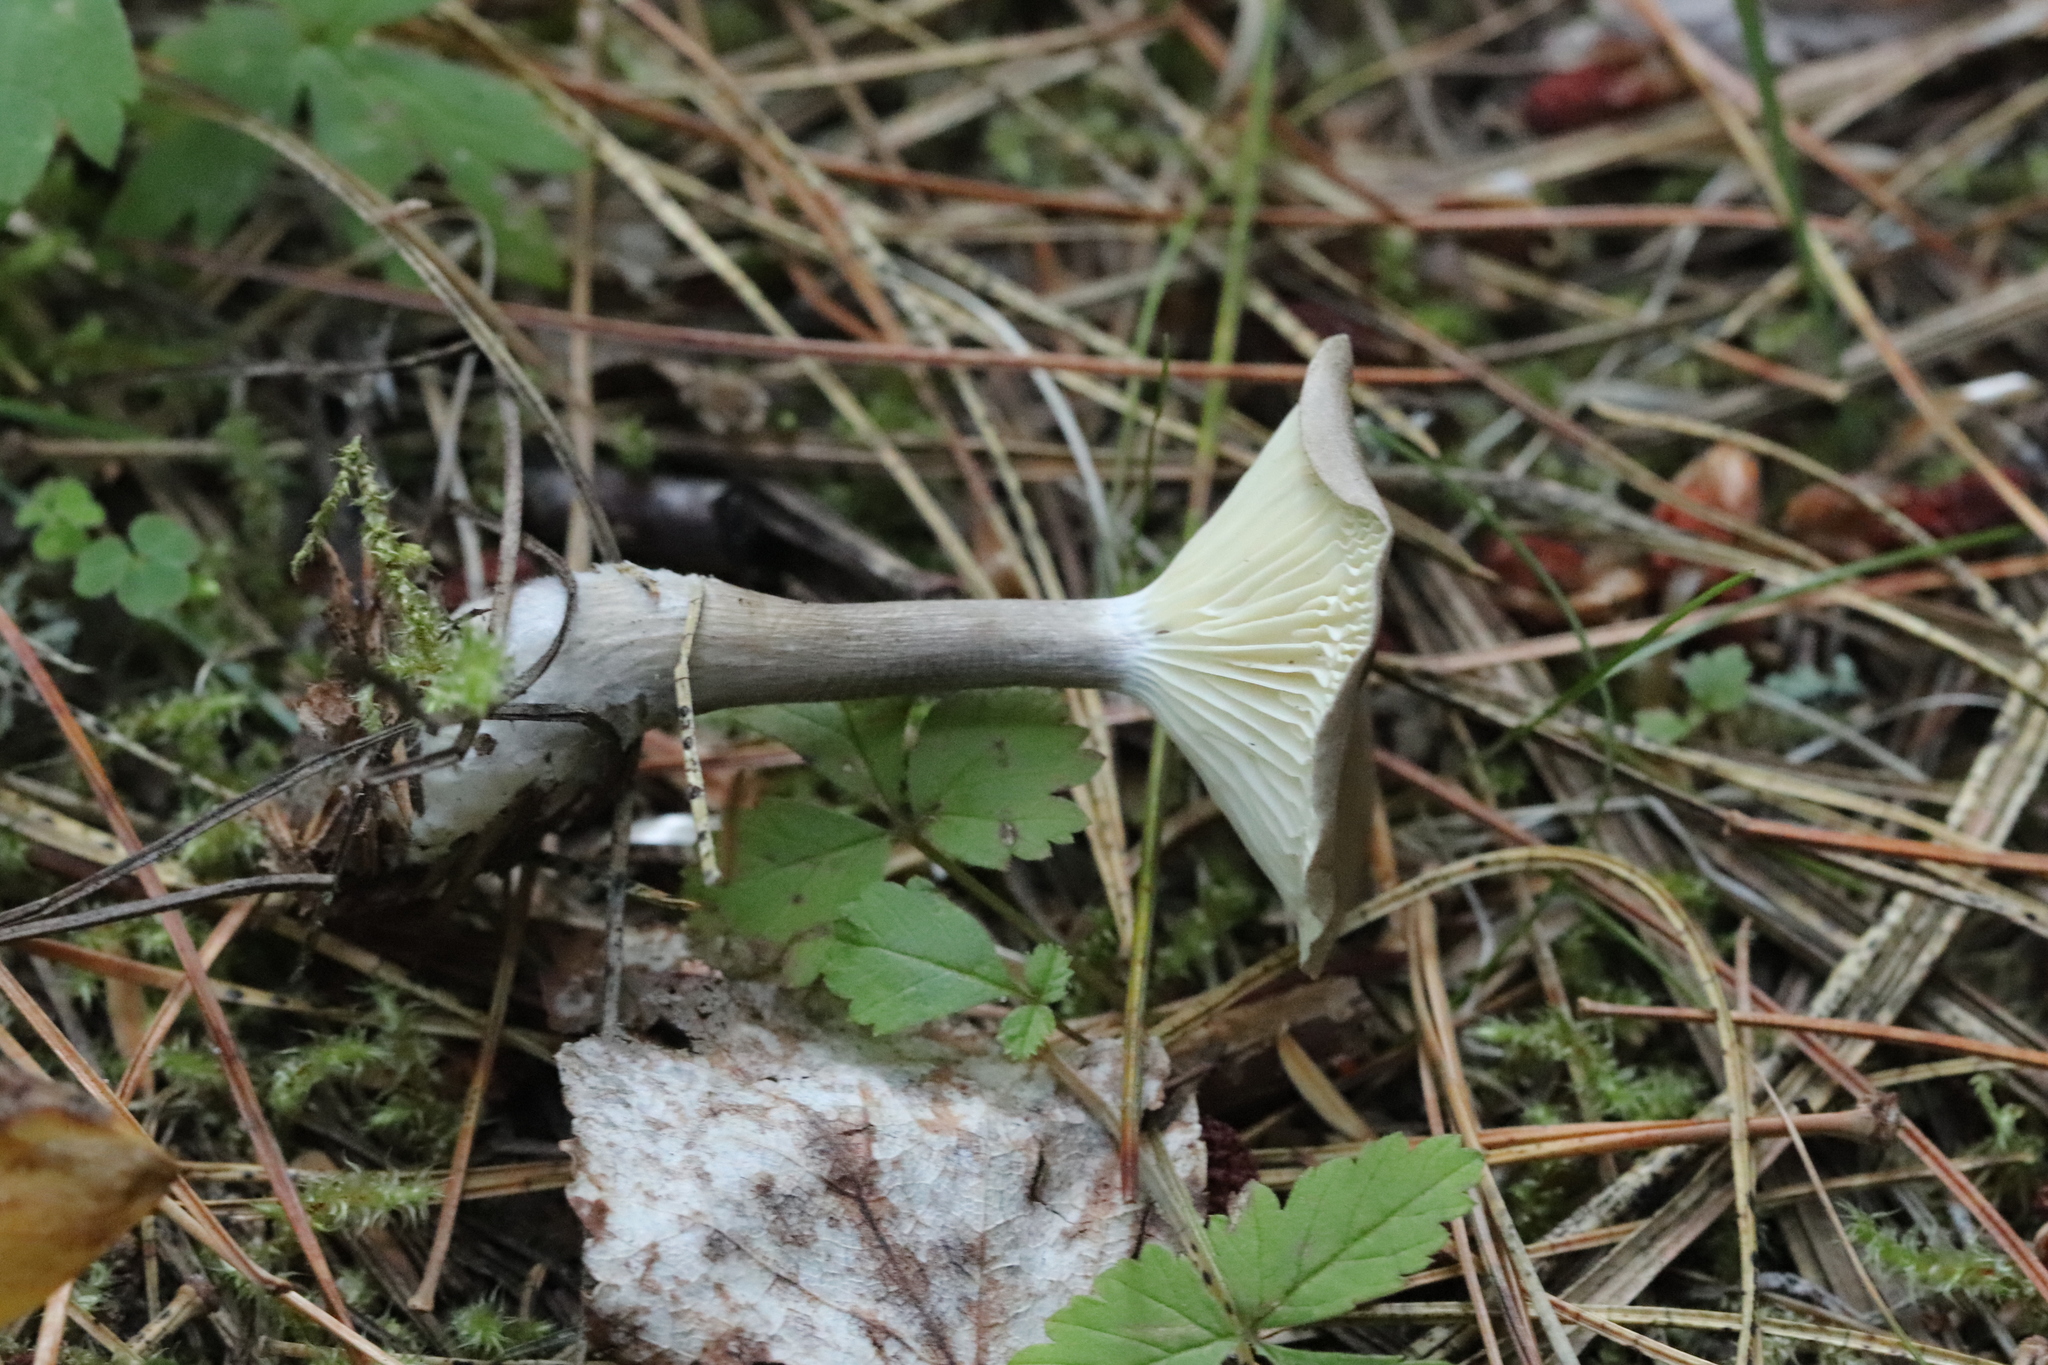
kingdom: Fungi
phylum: Basidiomycota
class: Agaricomycetes
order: Agaricales
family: Hygrophoraceae
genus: Ampulloclitocybe
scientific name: Ampulloclitocybe clavipes
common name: Club foot
